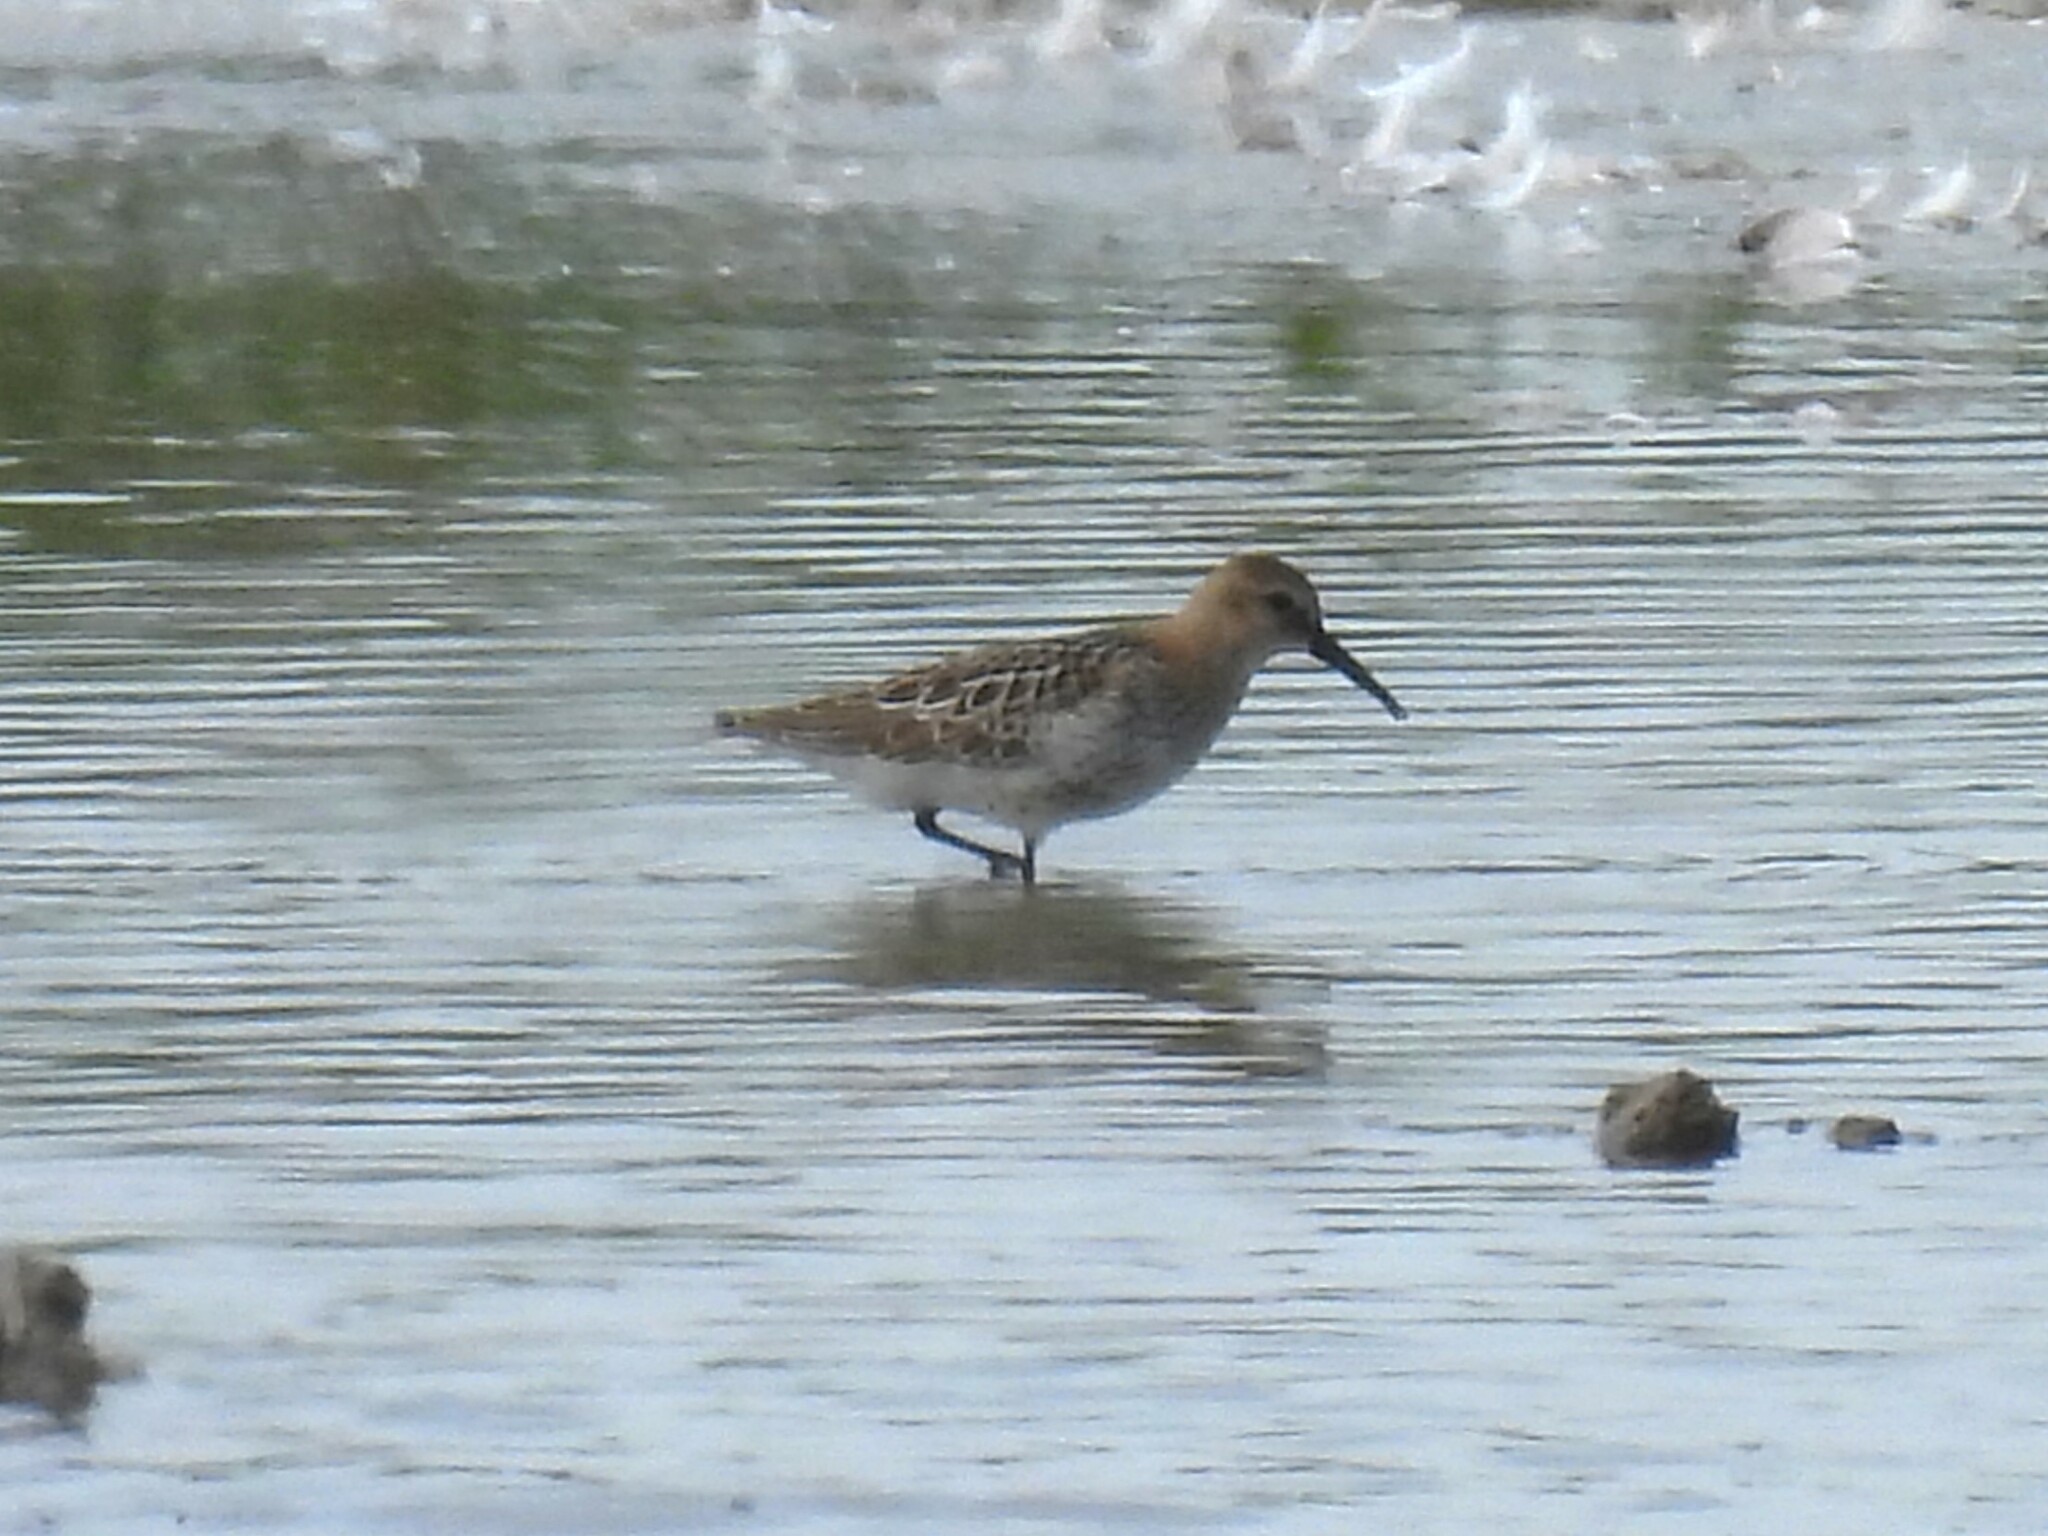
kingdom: Animalia
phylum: Chordata
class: Aves
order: Charadriiformes
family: Scolopacidae
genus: Calidris
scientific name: Calidris alpina
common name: Dunlin
